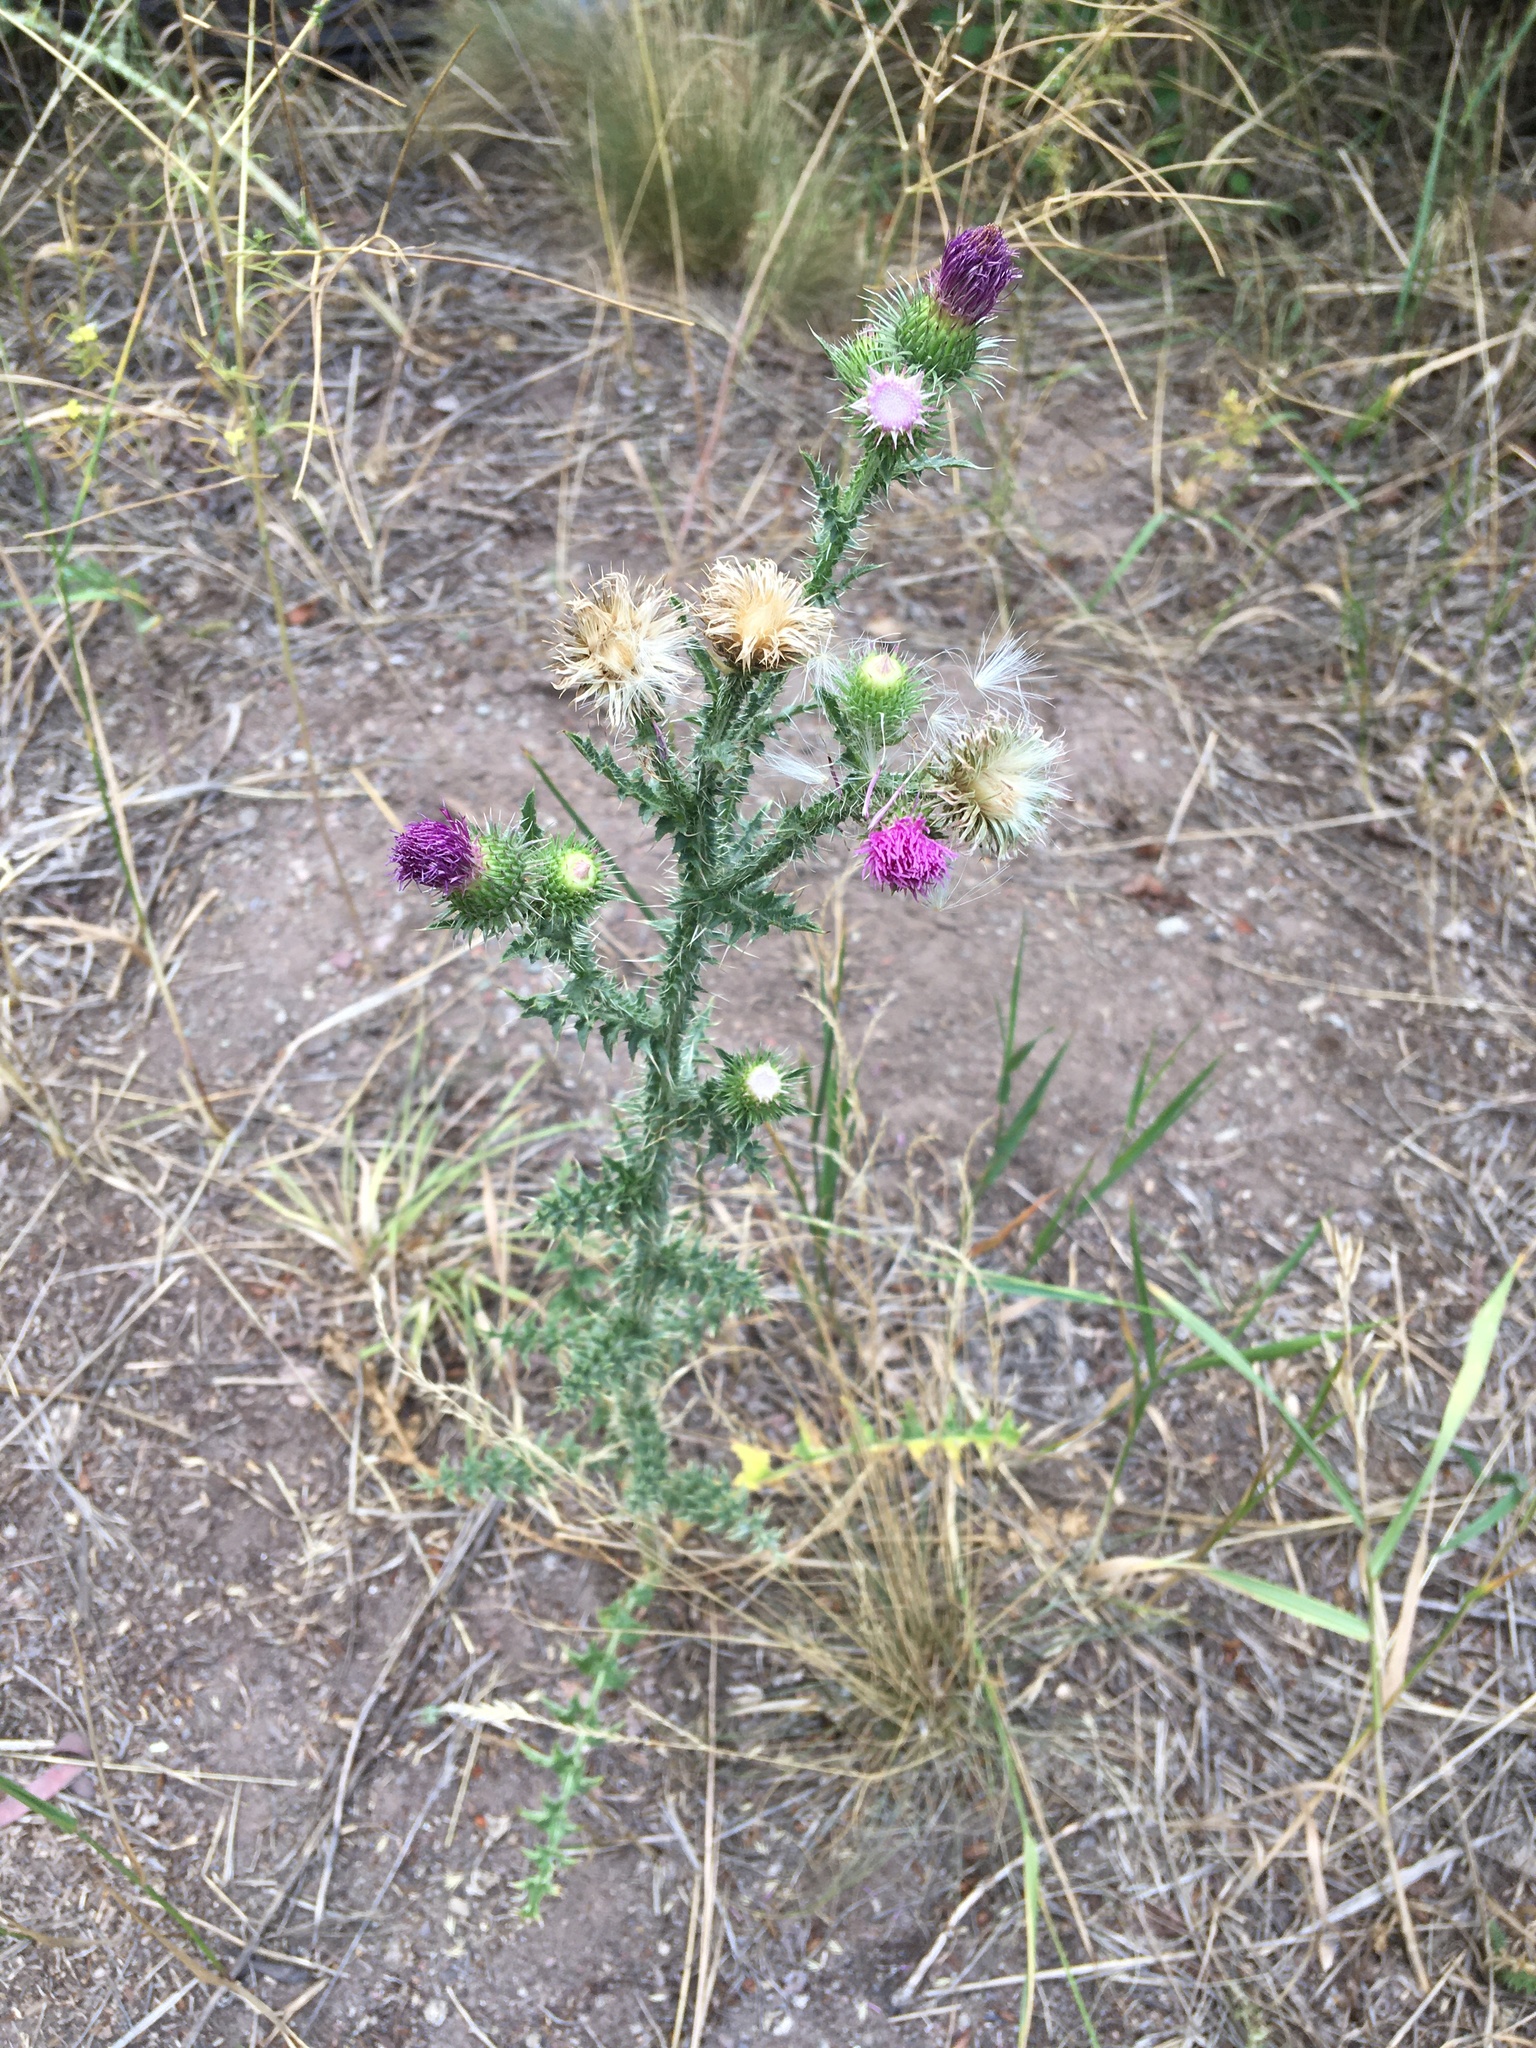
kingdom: Plantae
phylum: Tracheophyta
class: Magnoliopsida
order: Asterales
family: Asteraceae
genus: Carduus
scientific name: Carduus acanthoides
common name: Plumeless thistle
